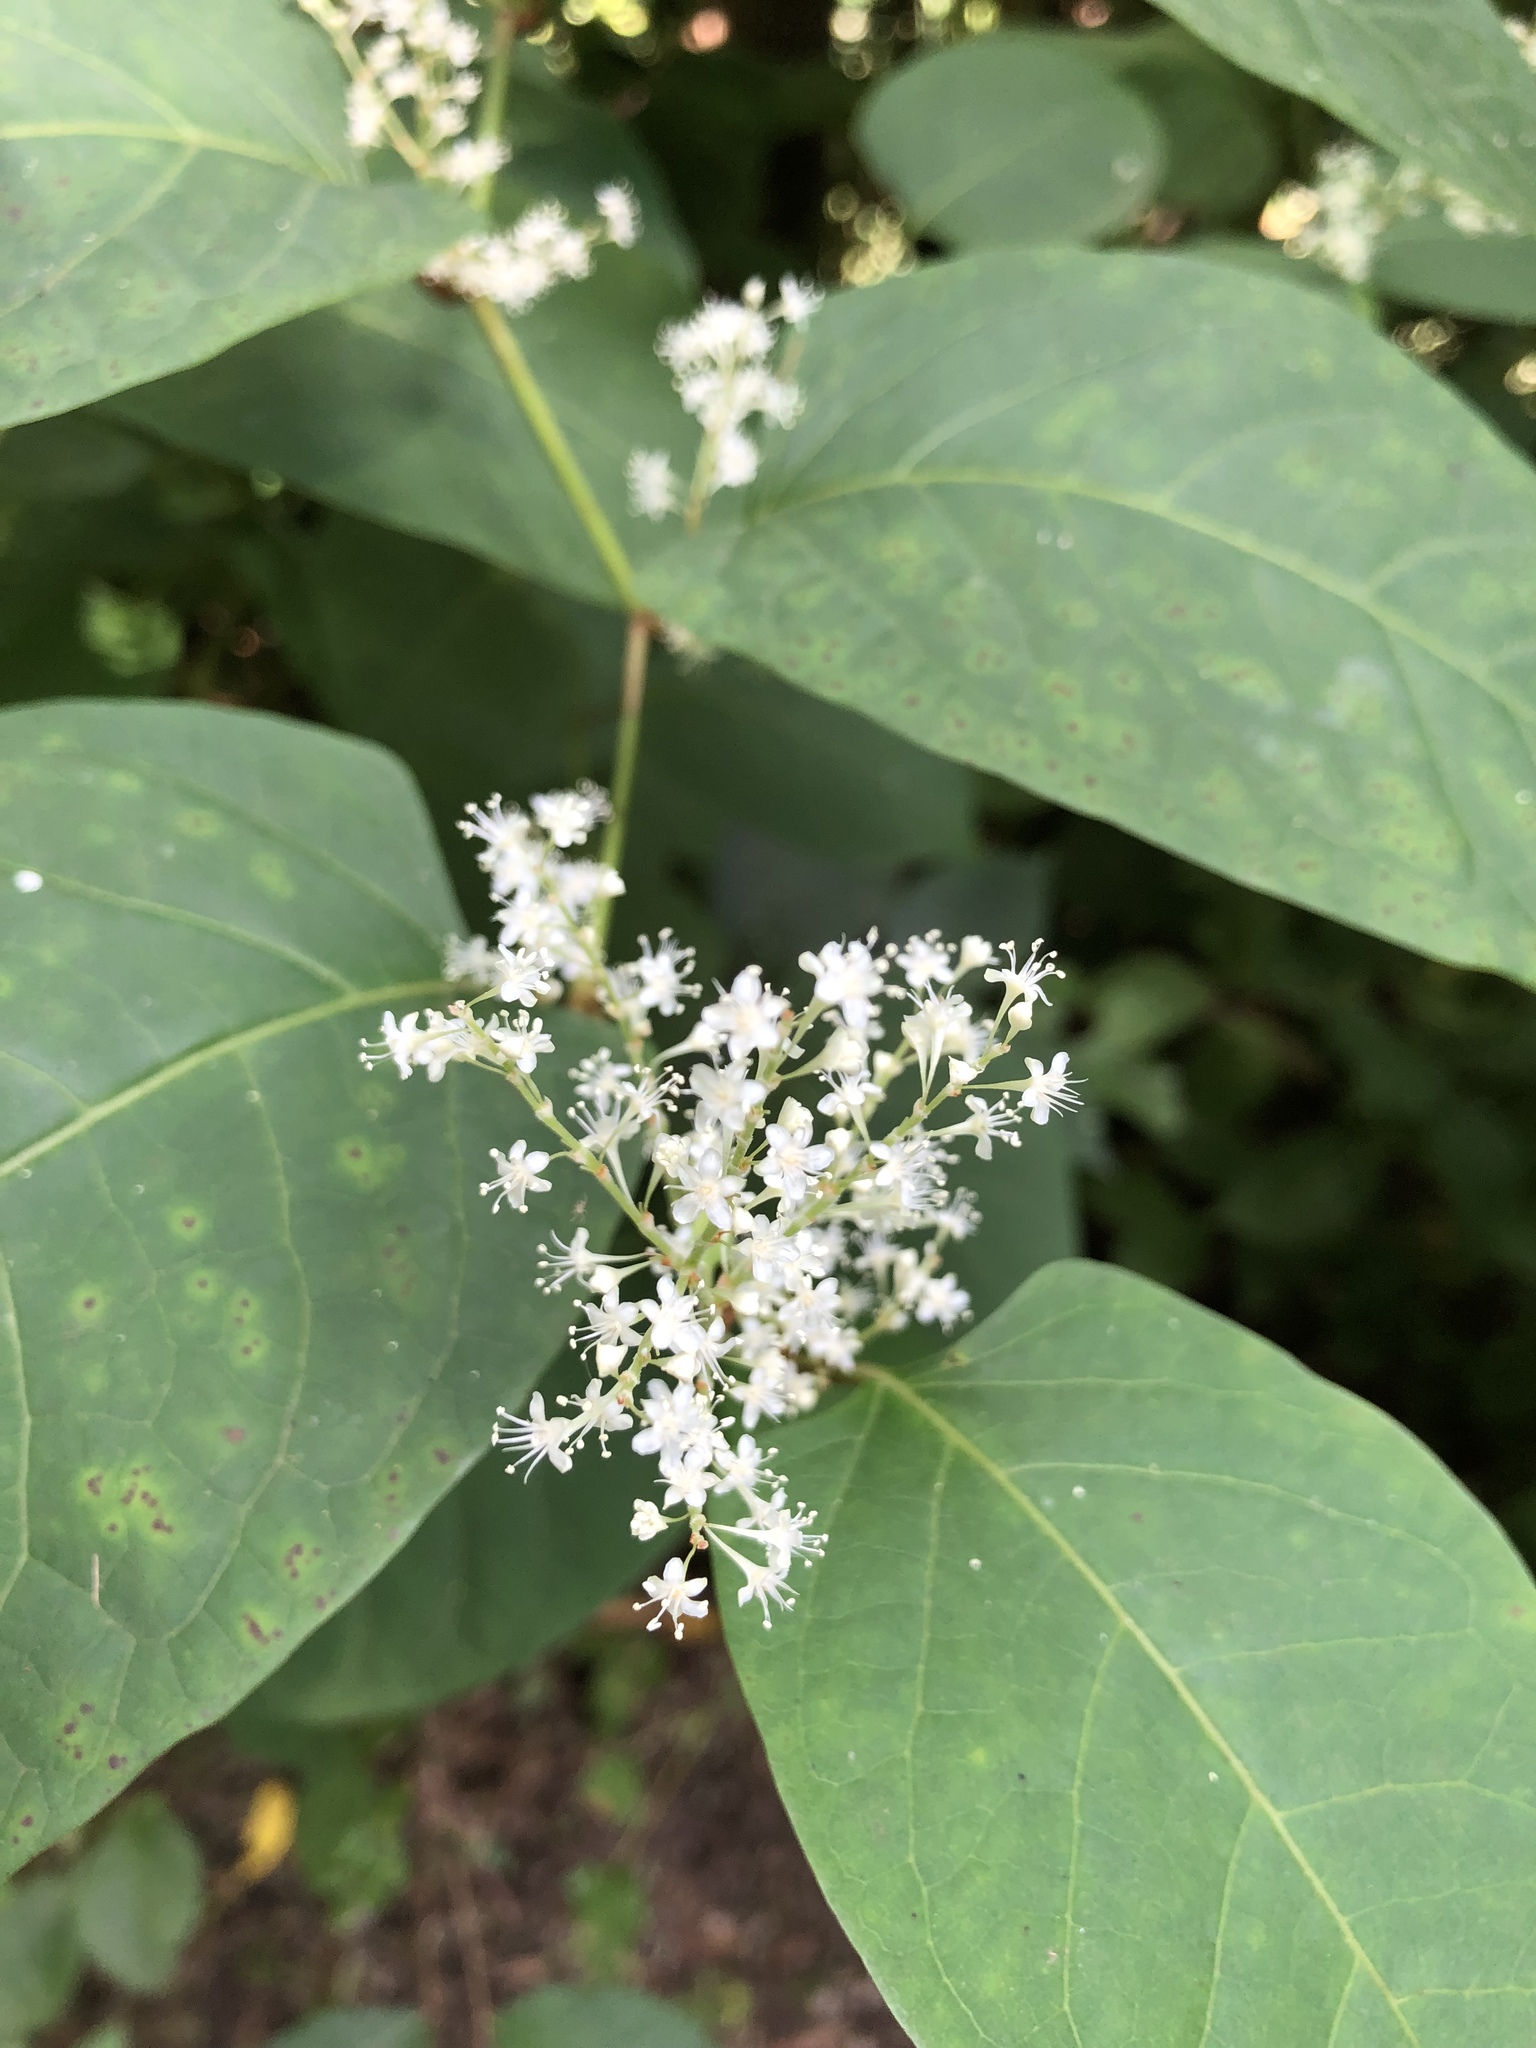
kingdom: Plantae
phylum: Tracheophyta
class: Magnoliopsida
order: Caryophyllales
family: Polygonaceae
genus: Reynoutria
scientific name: Reynoutria japonica
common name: Japanese knotweed
